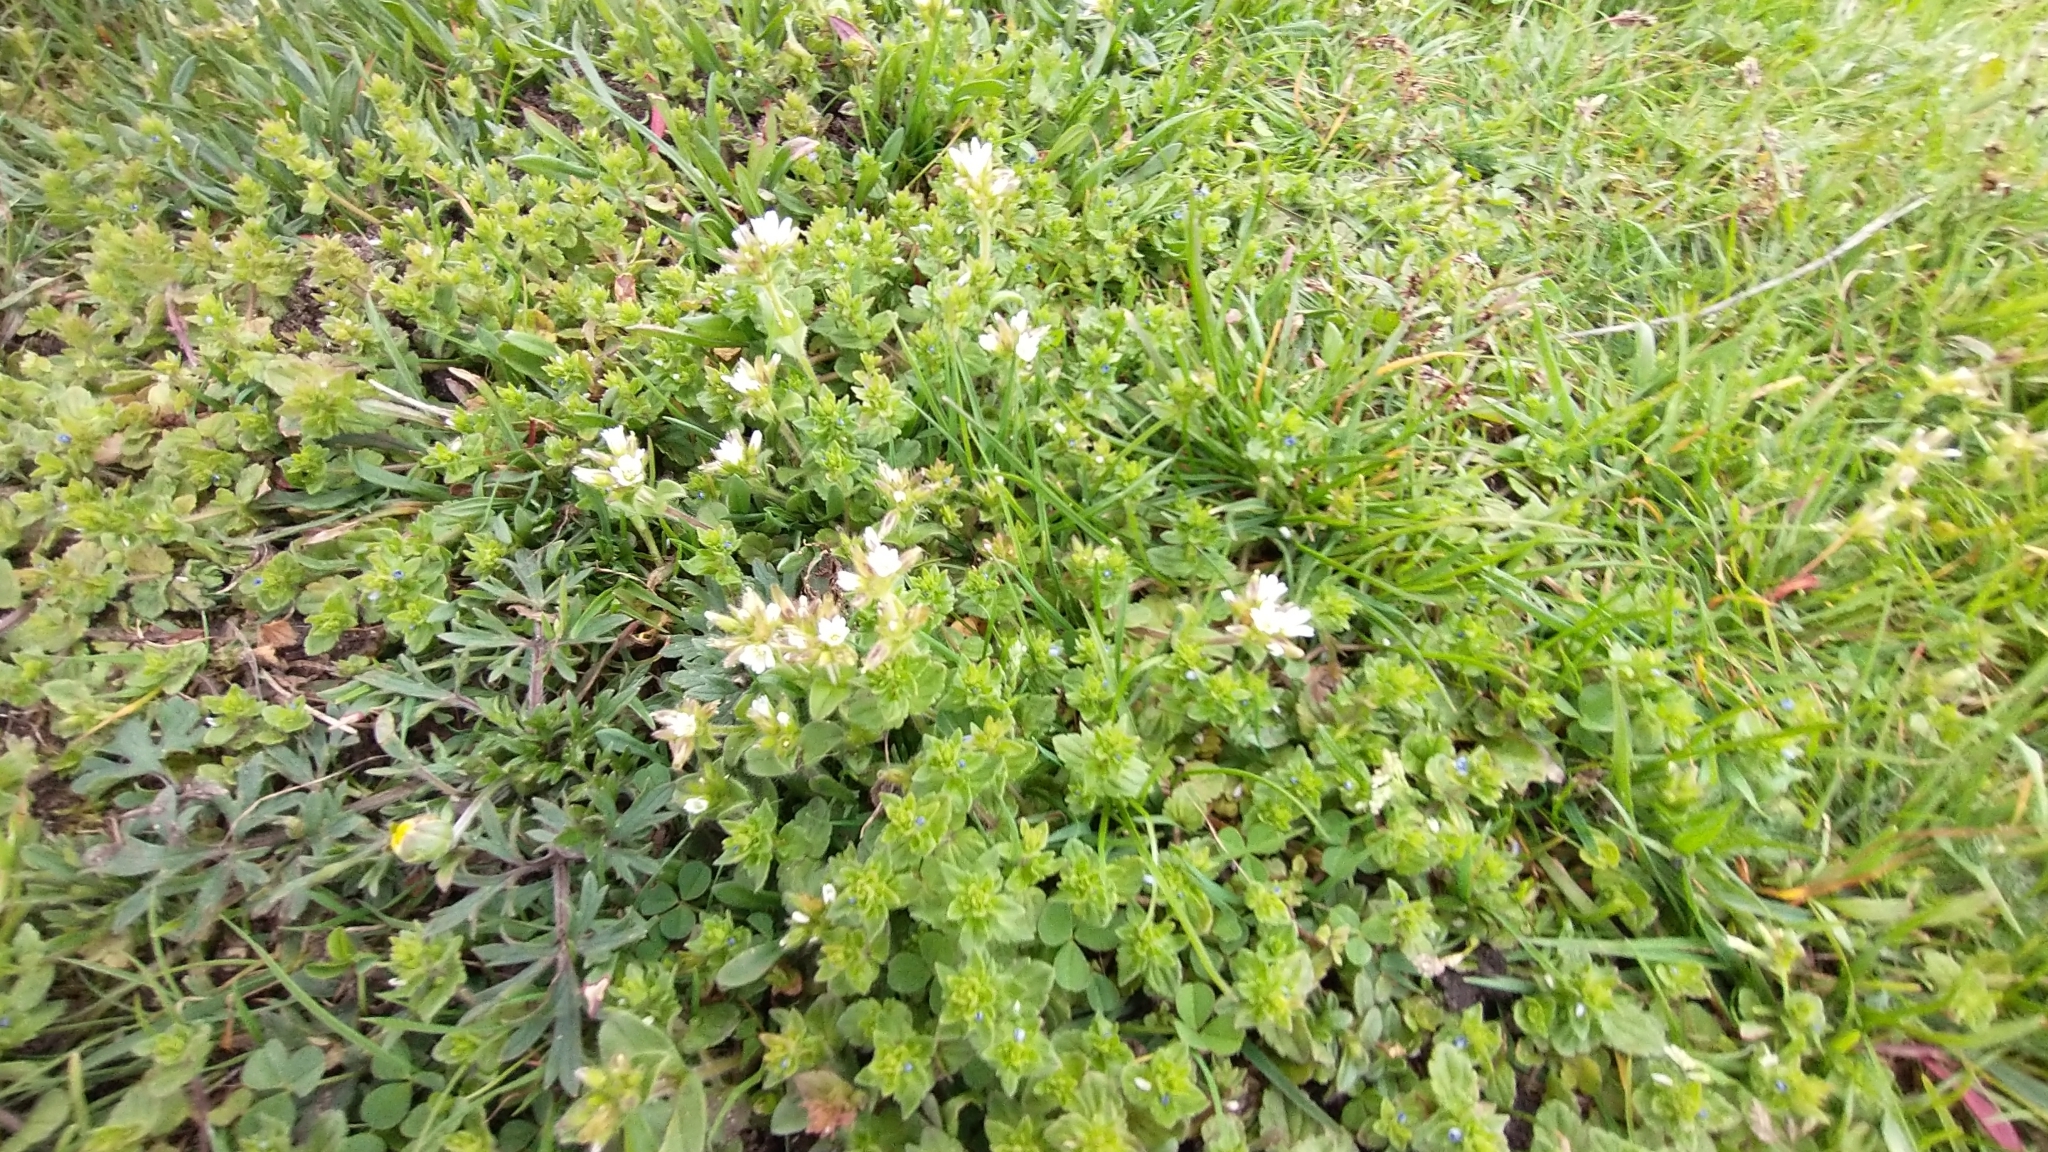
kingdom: Plantae
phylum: Tracheophyta
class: Magnoliopsida
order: Caryophyllales
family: Caryophyllaceae
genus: Cerastium
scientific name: Cerastium fontanum
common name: Common mouse-ear
